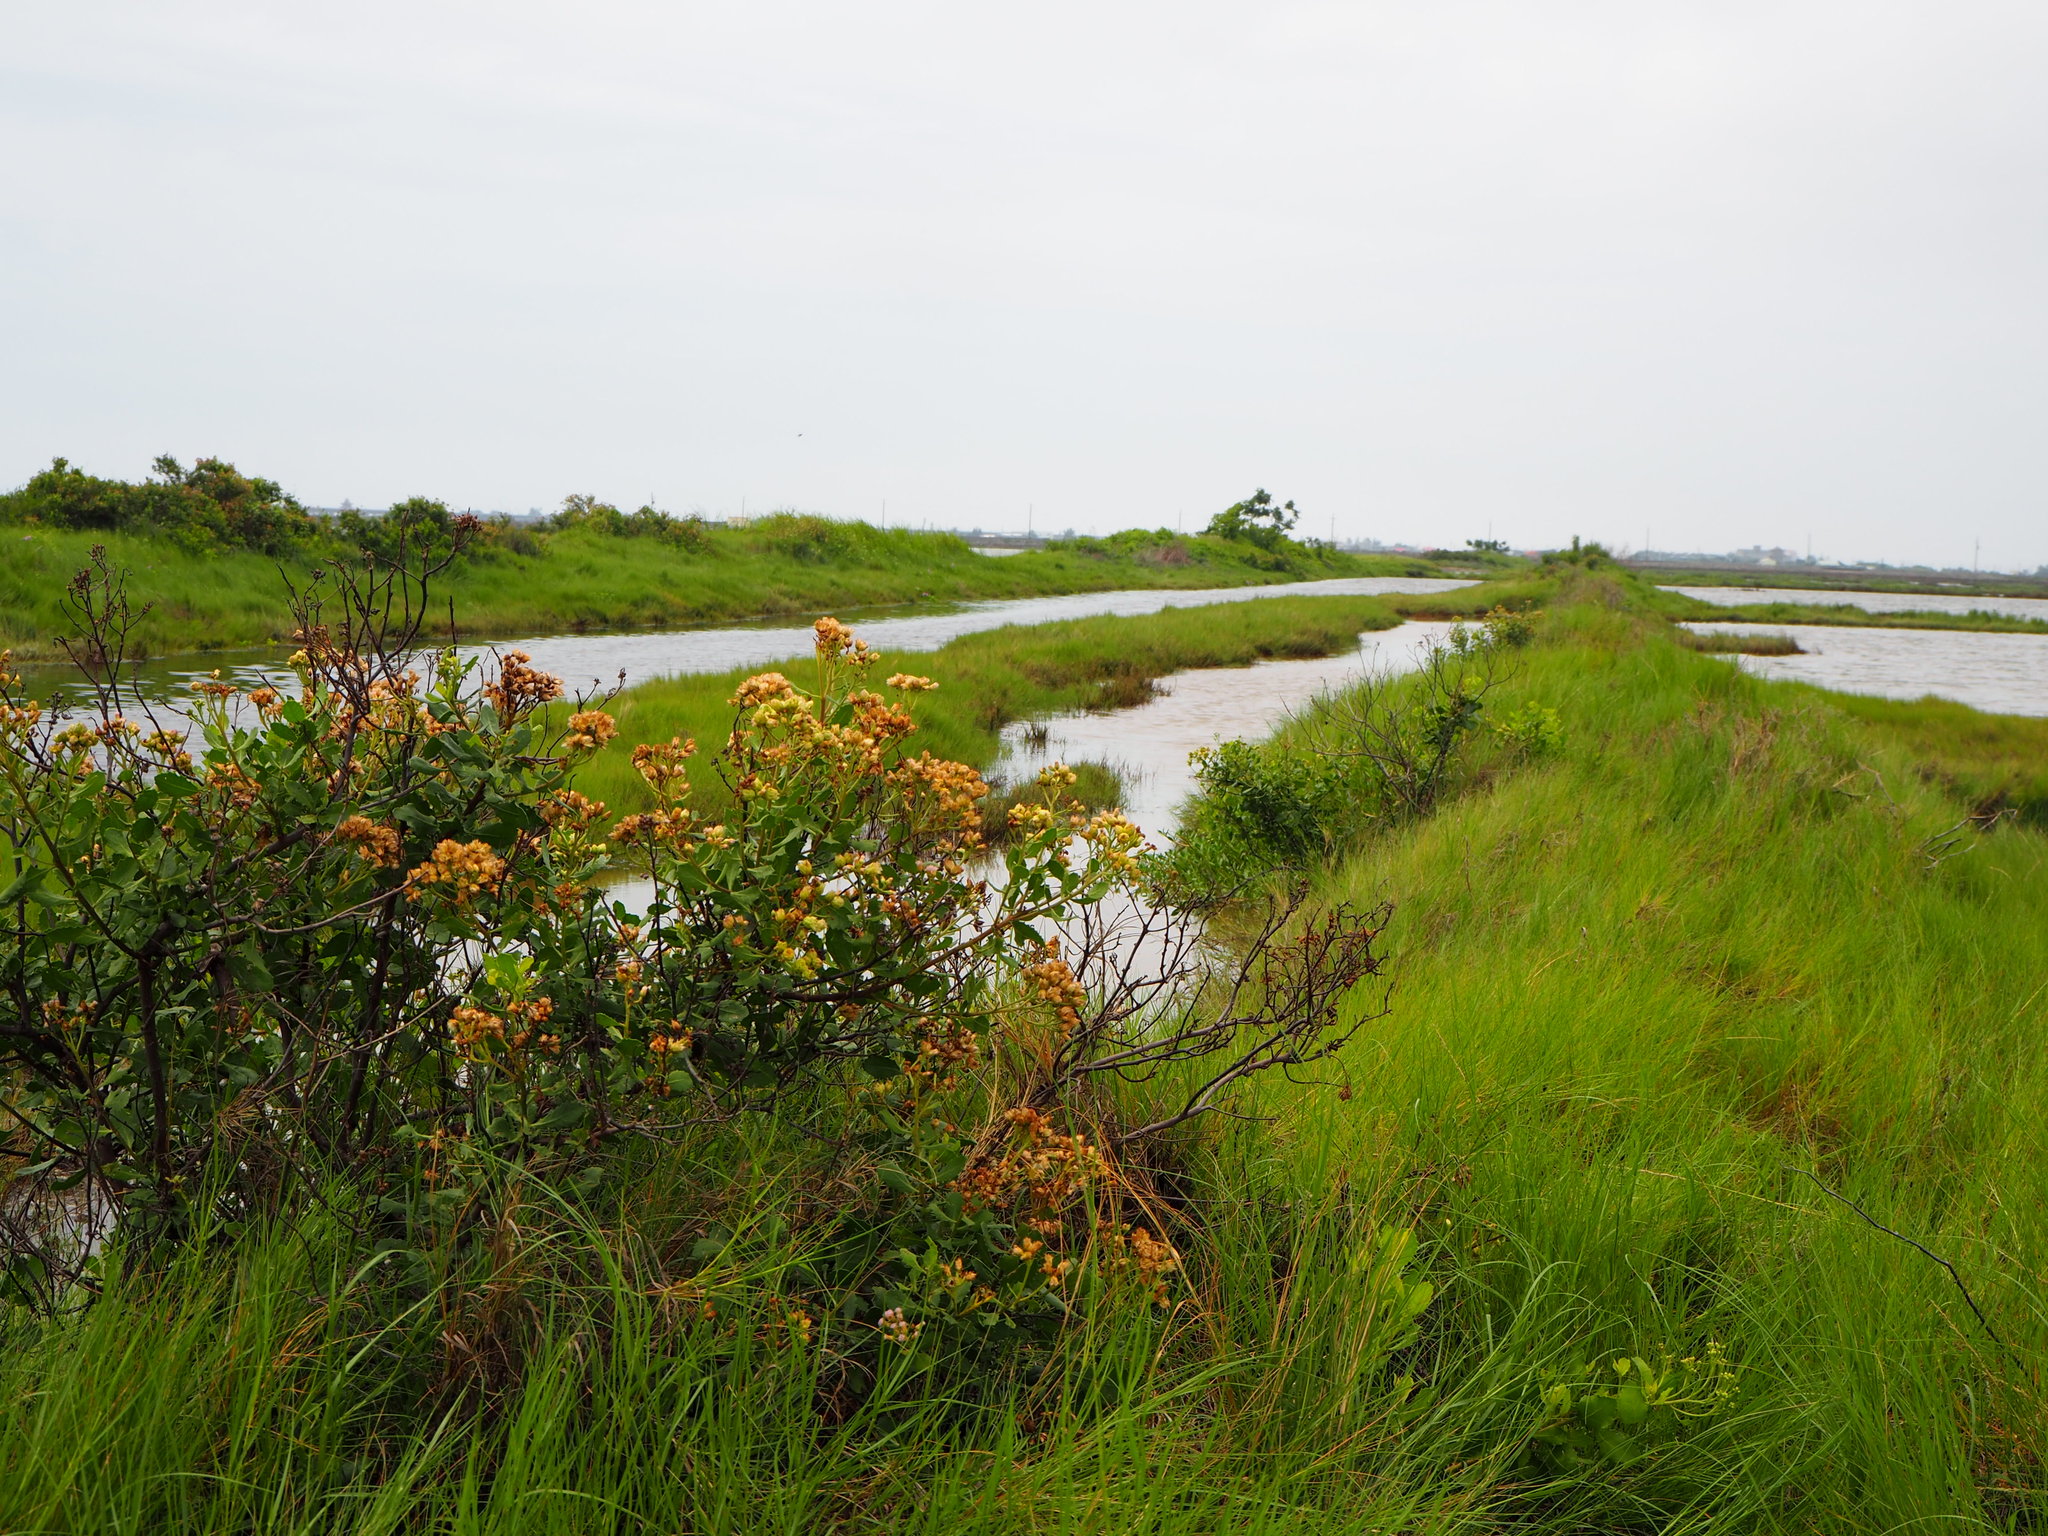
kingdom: Plantae
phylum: Tracheophyta
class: Magnoliopsida
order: Asterales
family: Asteraceae
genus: Pluchea
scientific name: Pluchea indica
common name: Indian fleabane
